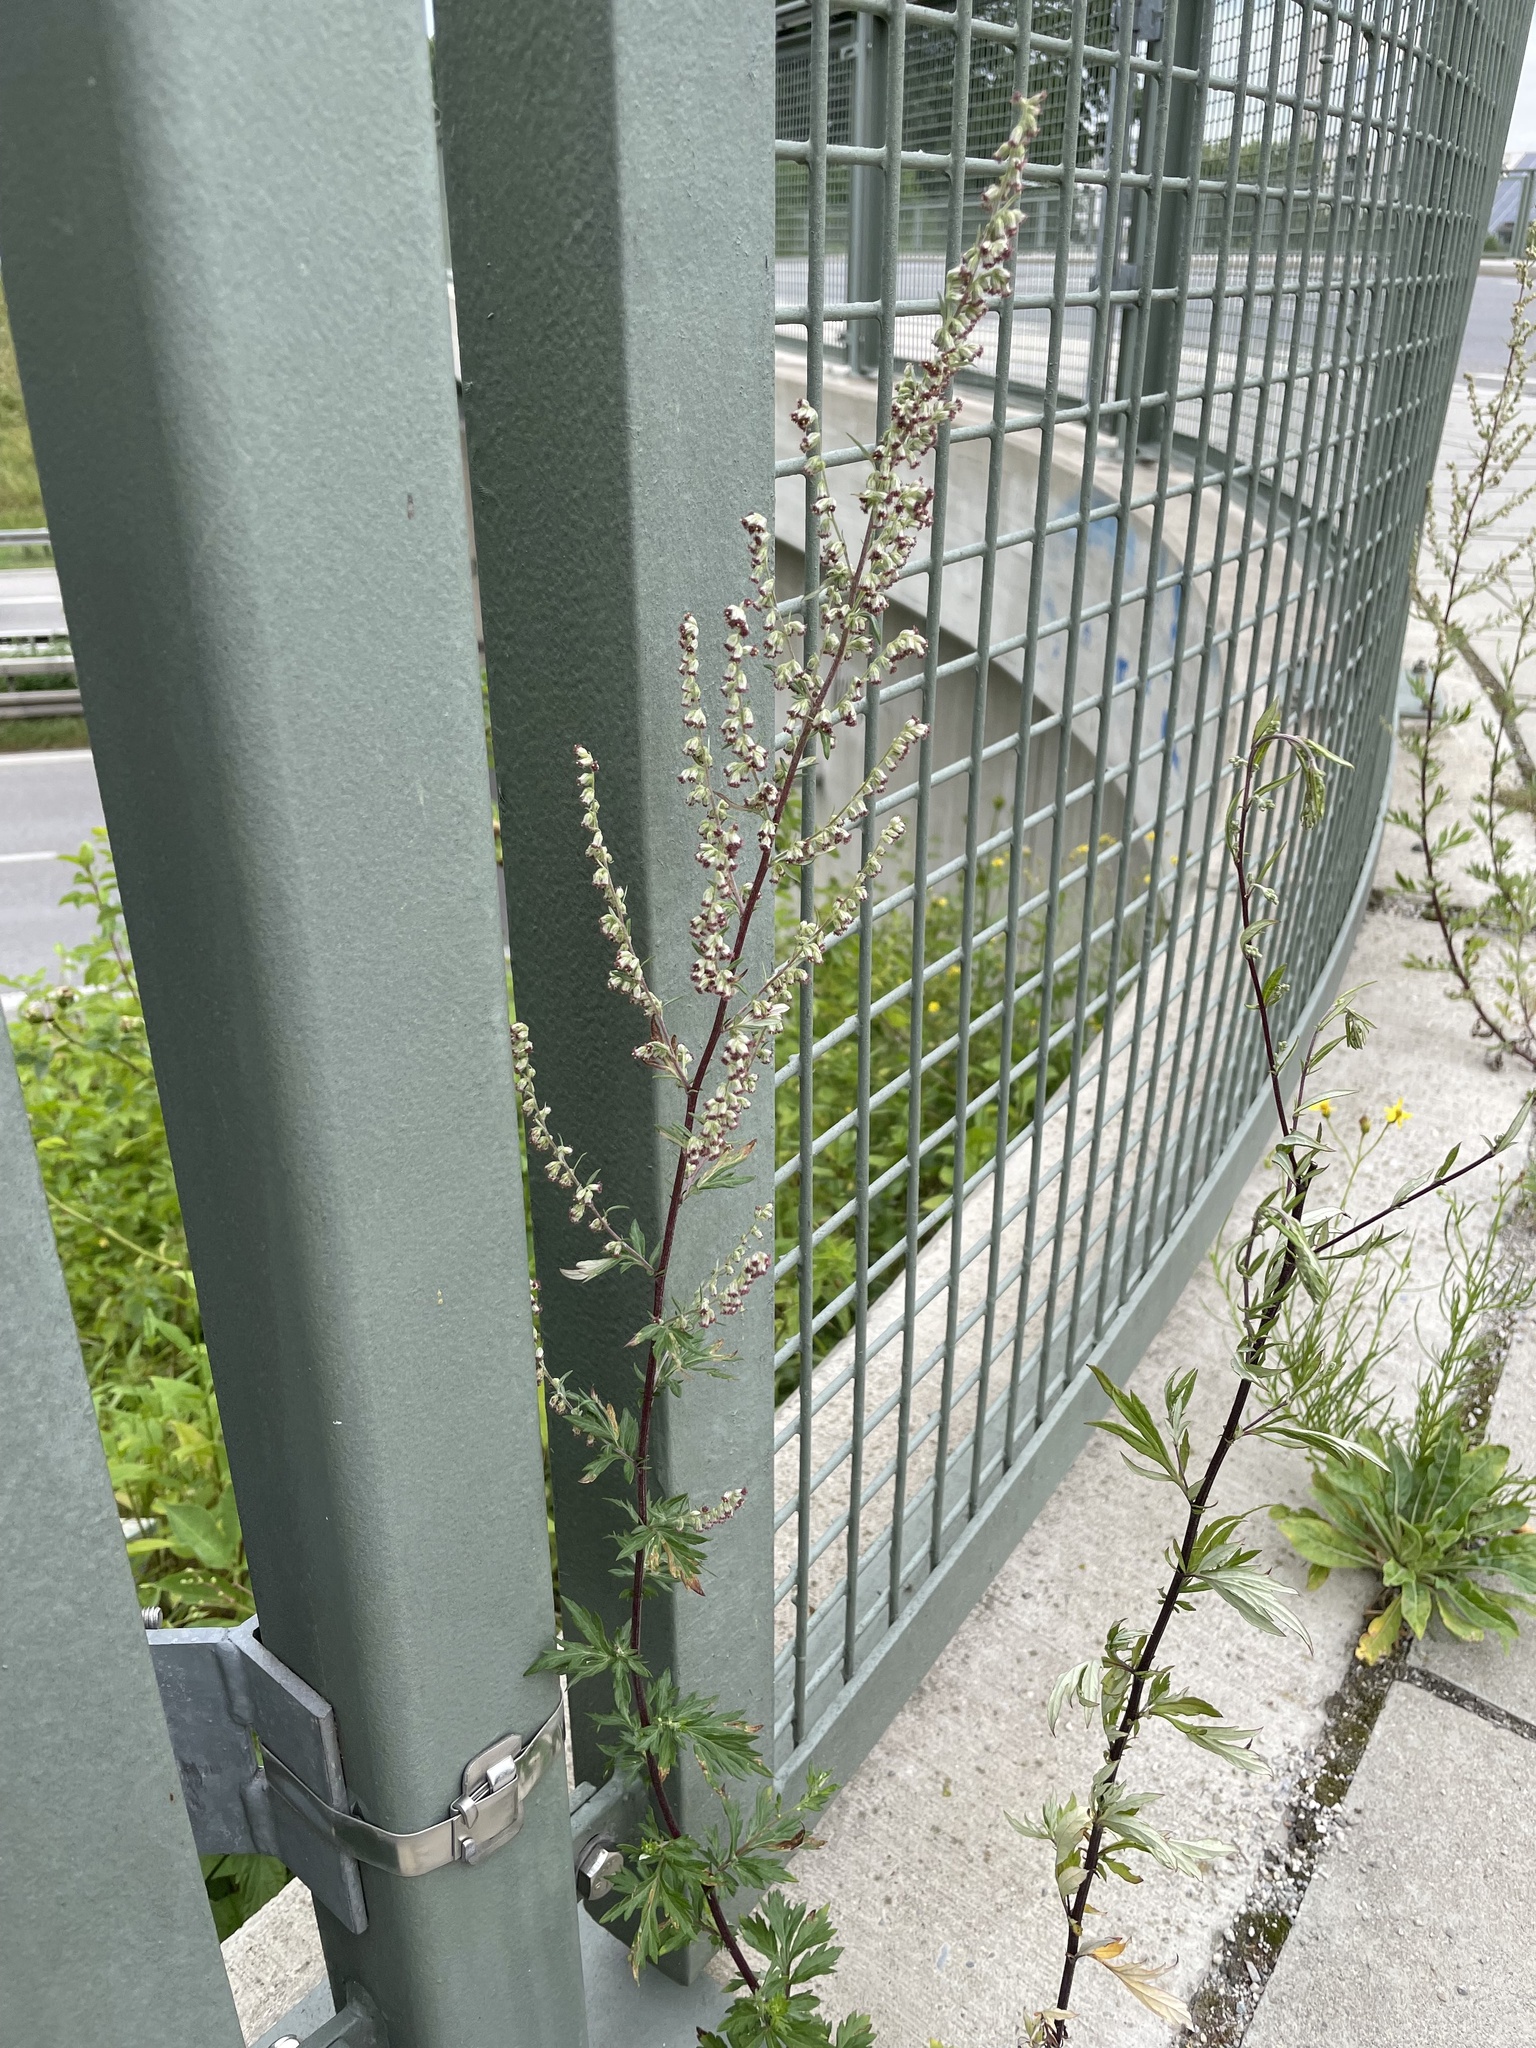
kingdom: Plantae
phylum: Tracheophyta
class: Magnoliopsida
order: Asterales
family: Asteraceae
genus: Artemisia
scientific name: Artemisia vulgaris
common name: Mugwort
